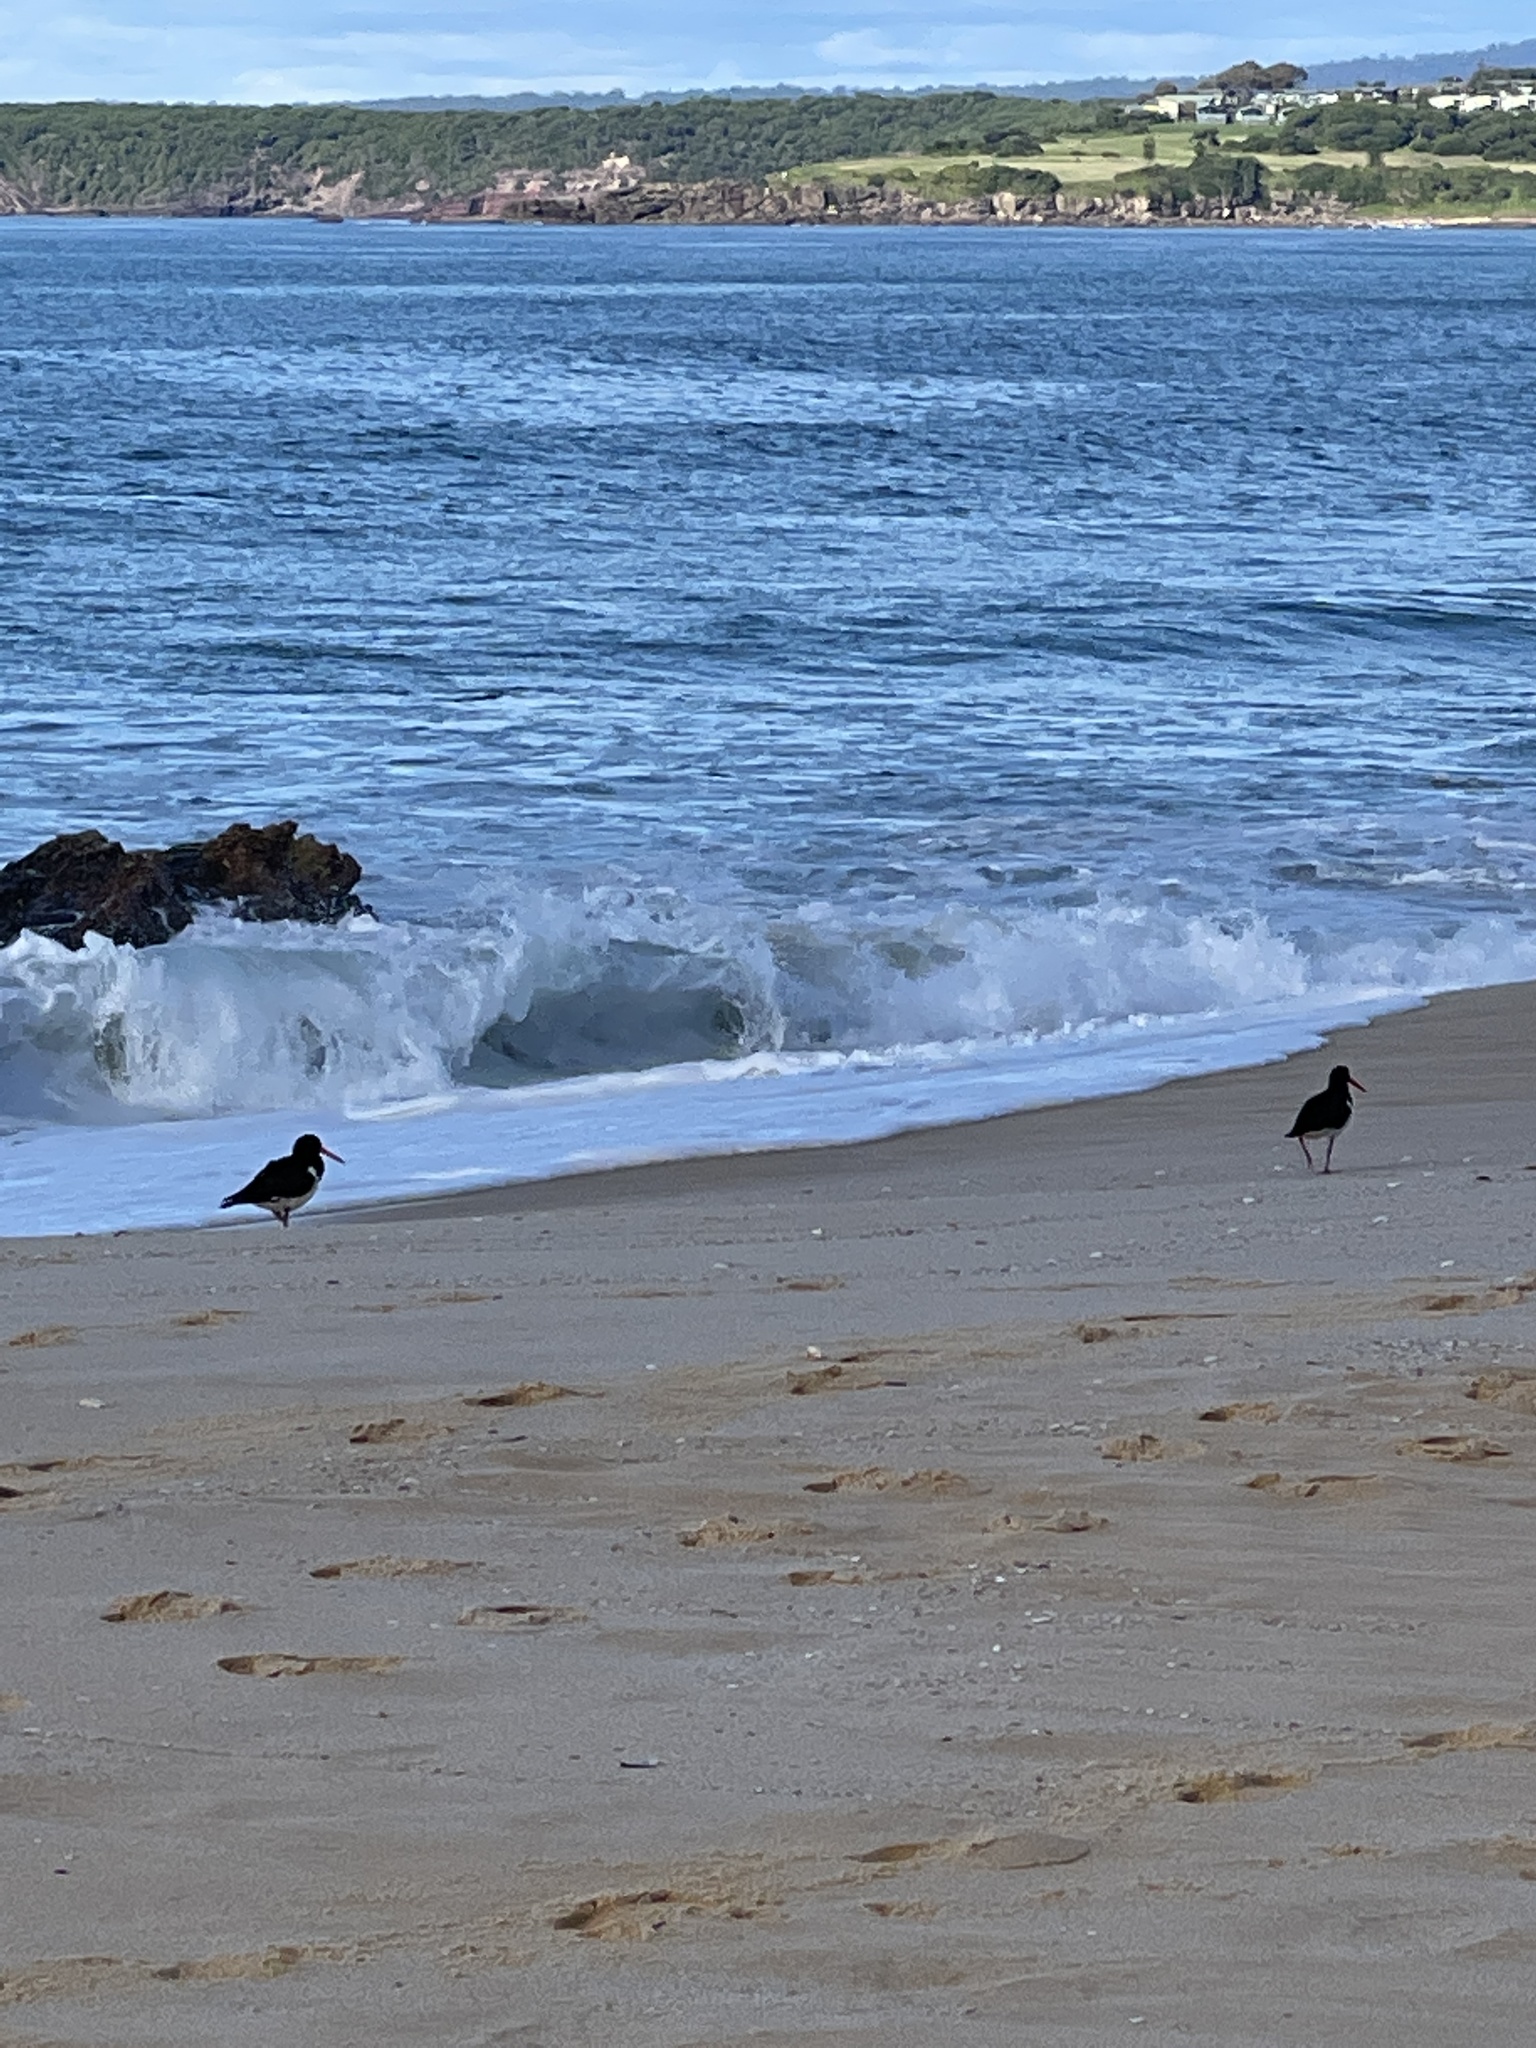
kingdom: Animalia
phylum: Chordata
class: Aves
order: Charadriiformes
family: Haematopodidae
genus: Haematopus
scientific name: Haematopus longirostris
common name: Pied oystercatcher
